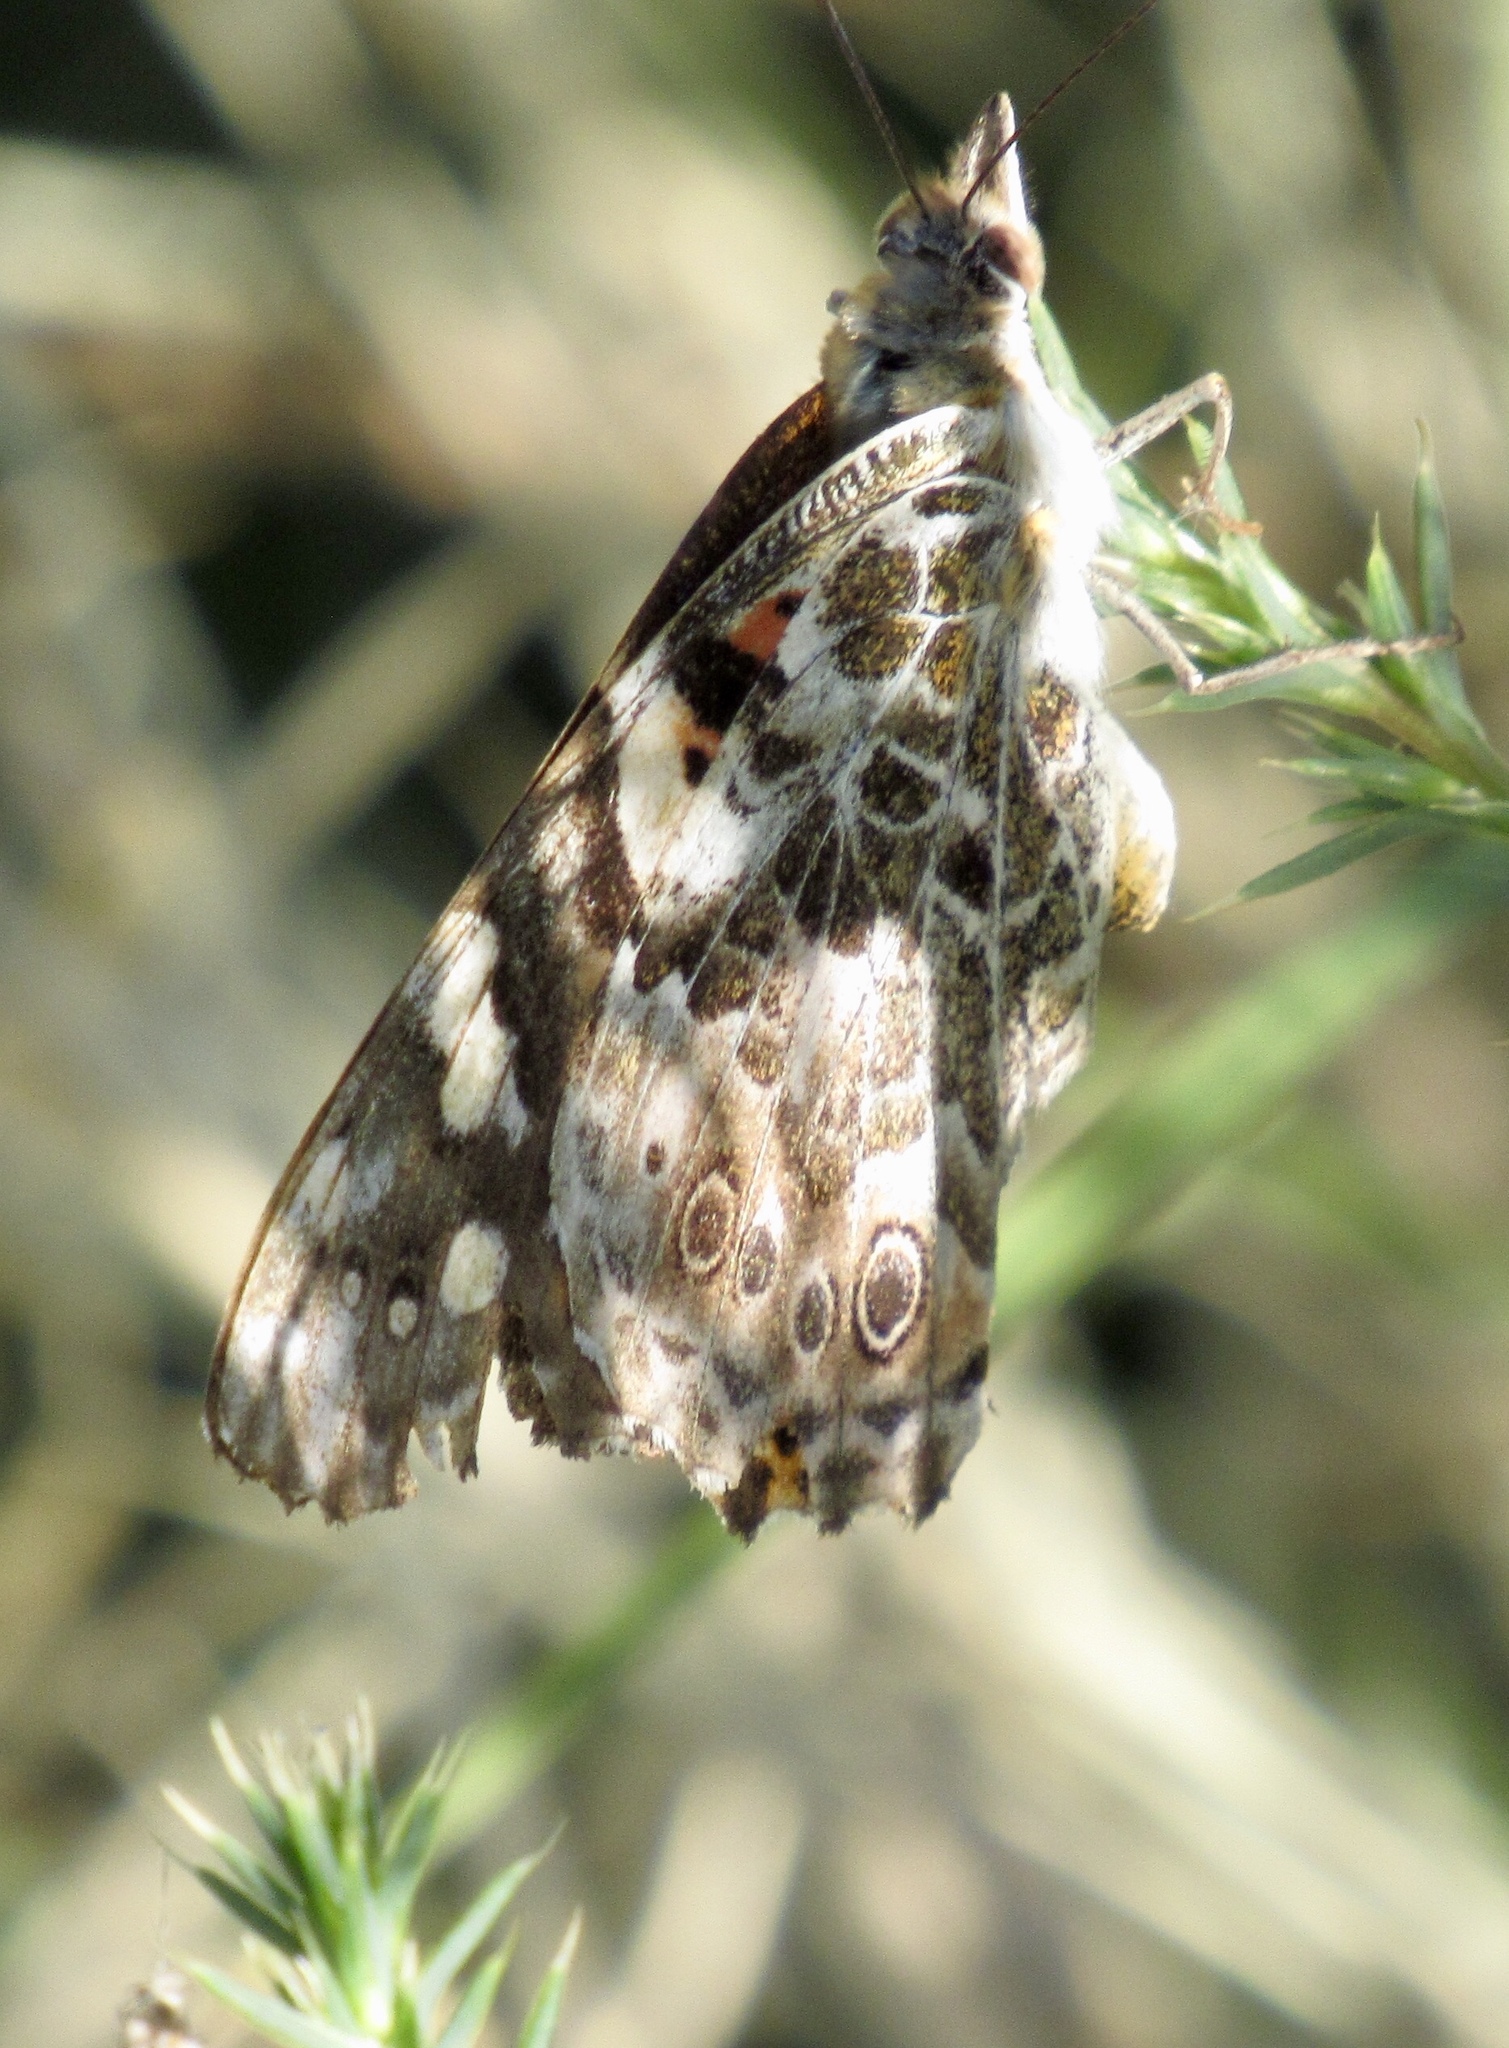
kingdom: Animalia
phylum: Arthropoda
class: Insecta
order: Lepidoptera
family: Nymphalidae
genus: Vanessa
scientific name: Vanessa cardui
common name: Painted lady
